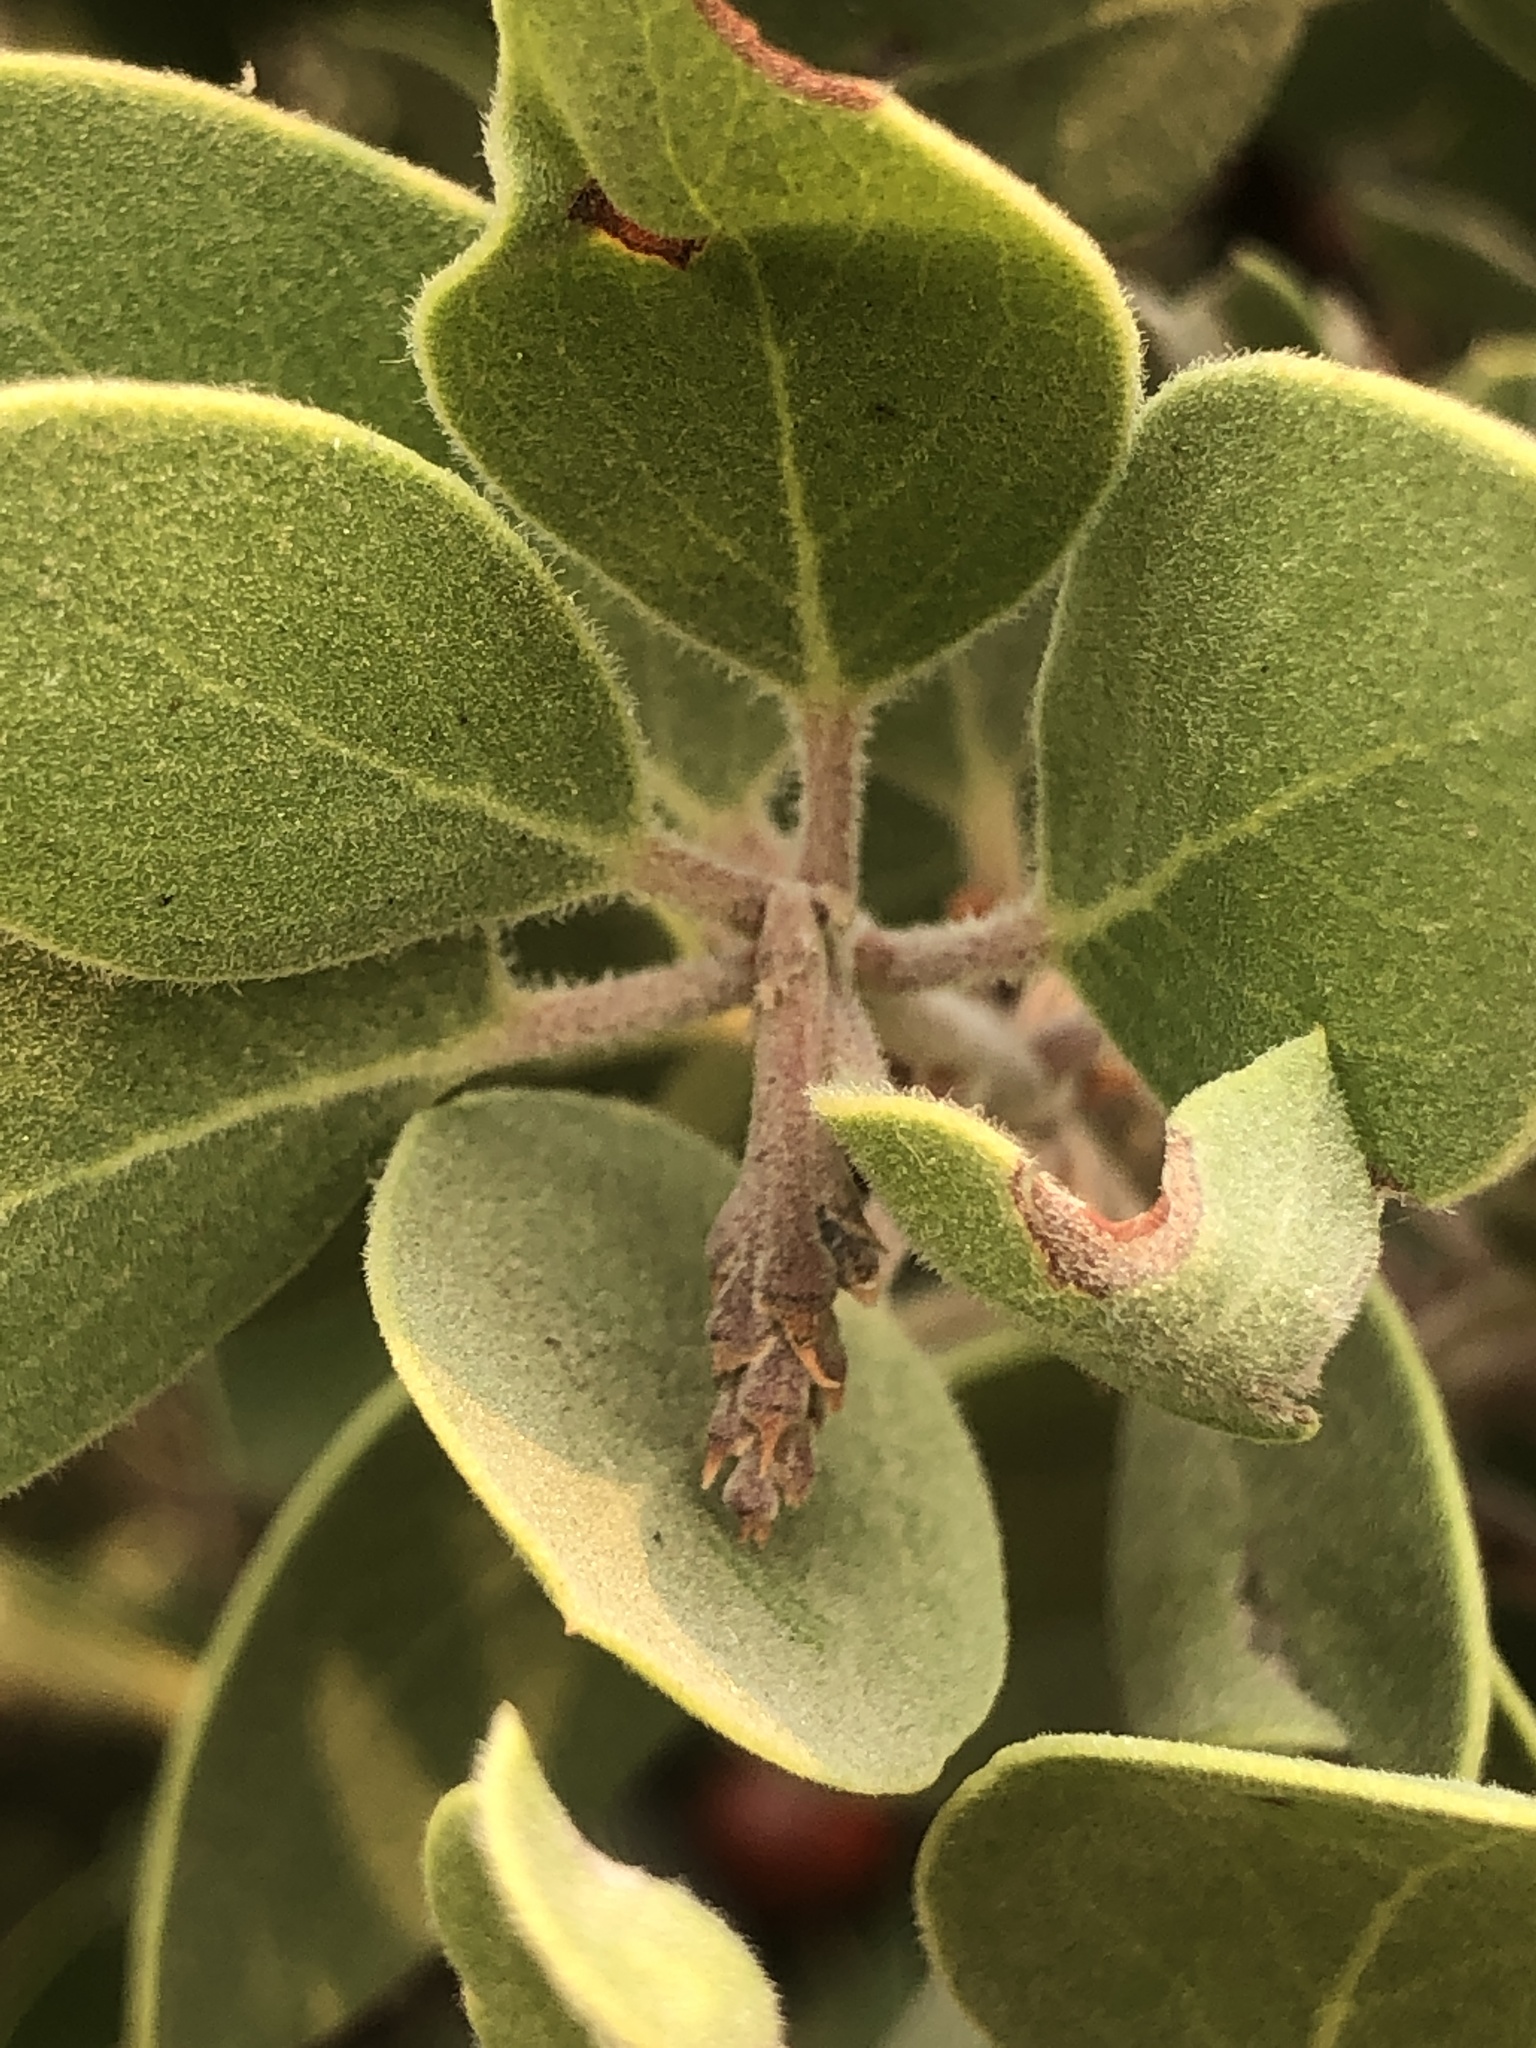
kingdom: Plantae
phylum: Tracheophyta
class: Magnoliopsida
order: Ericales
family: Ericaceae
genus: Arctostaphylos
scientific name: Arctostaphylos manzanita
